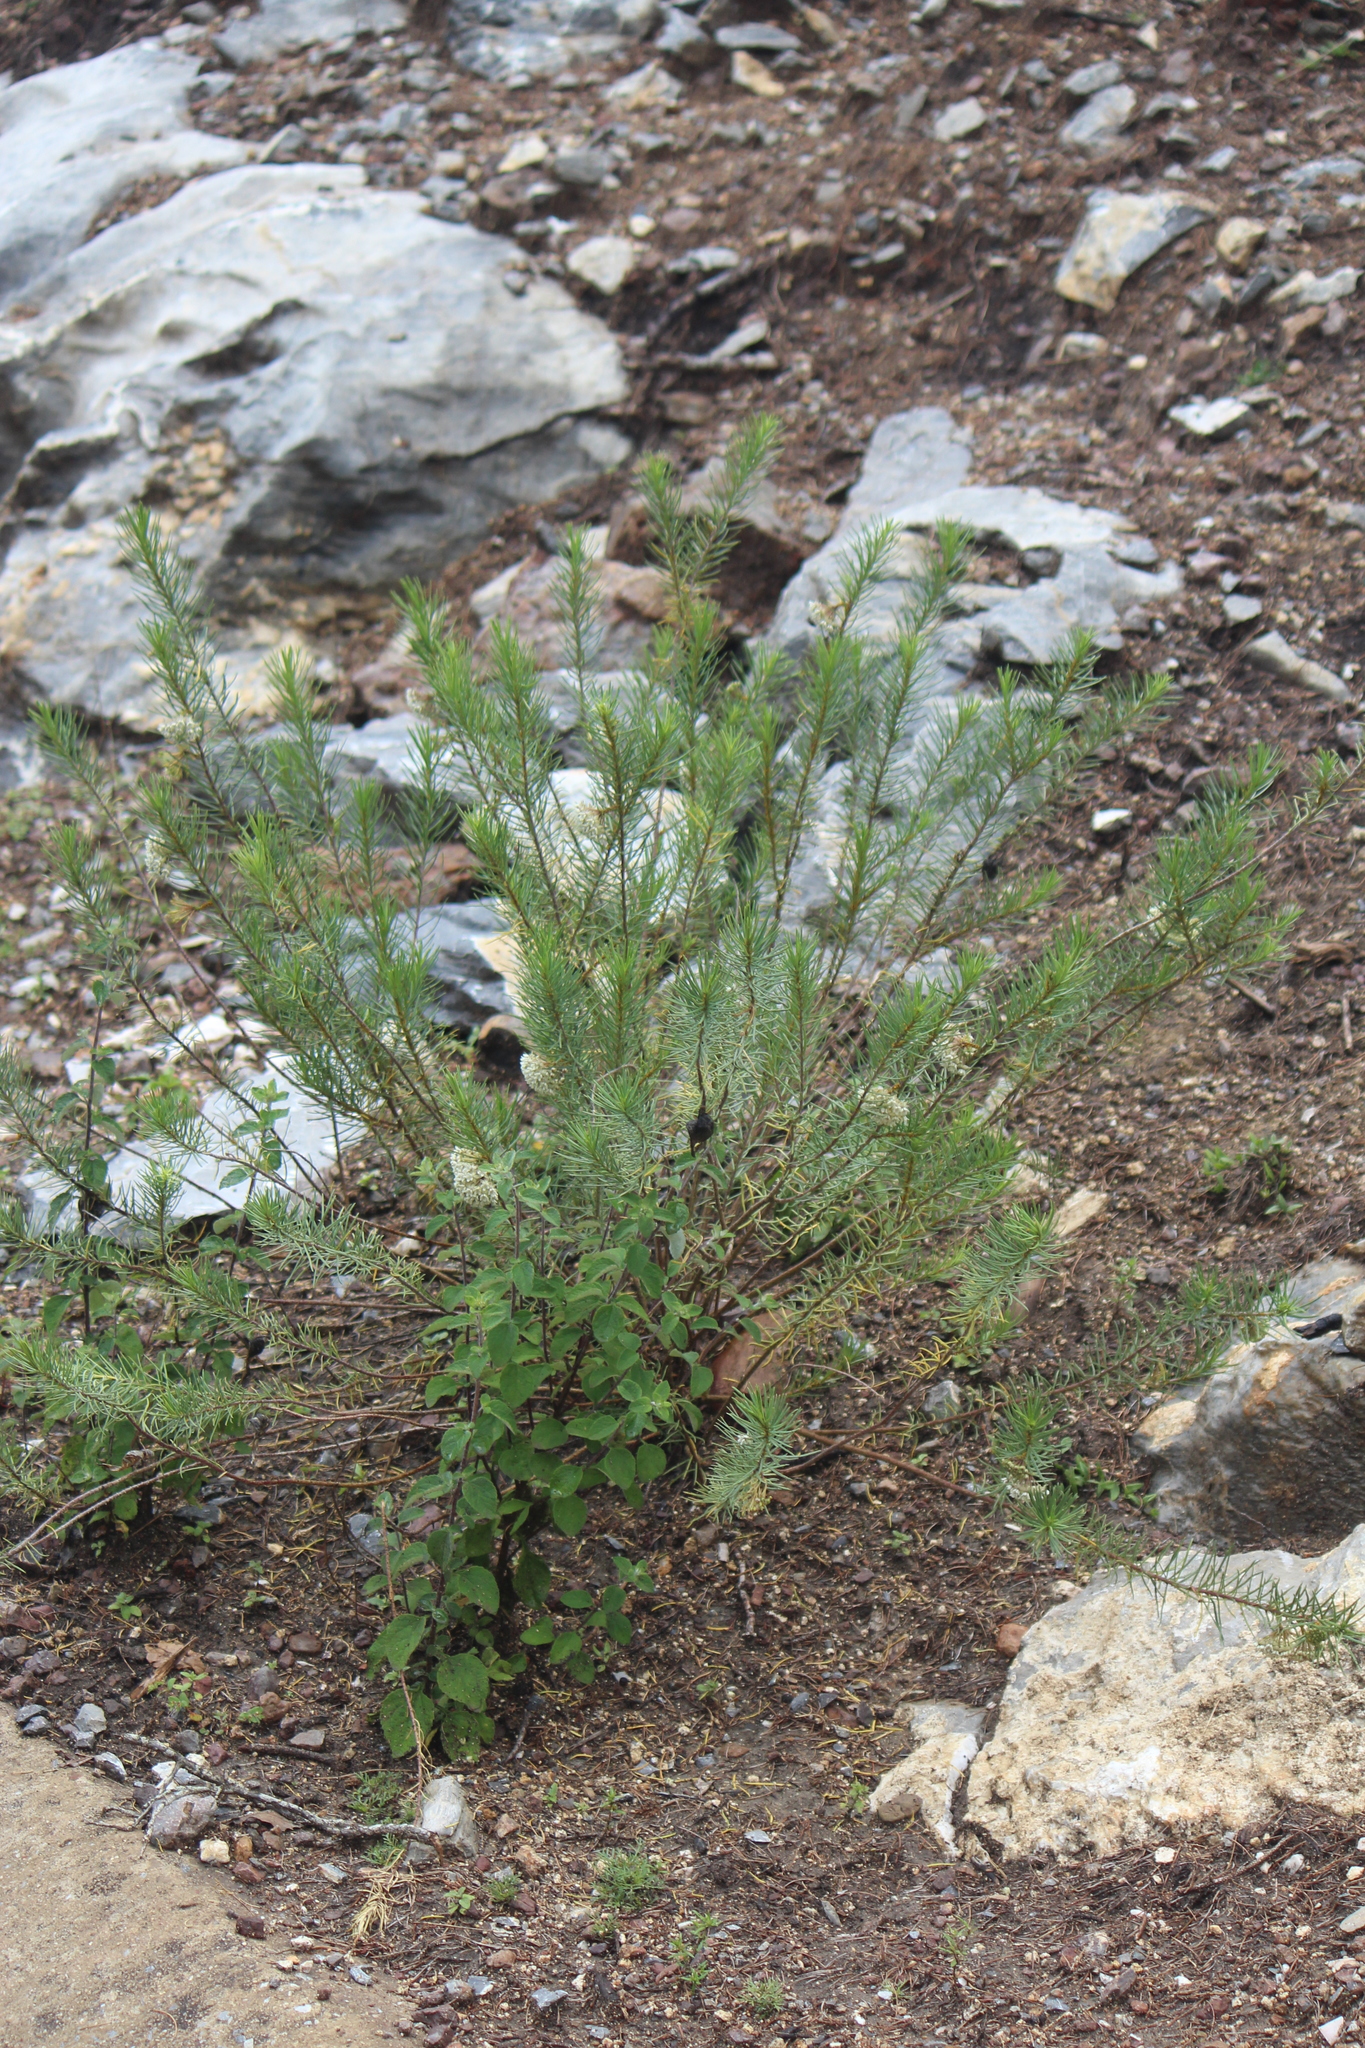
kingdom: Plantae
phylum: Tracheophyta
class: Magnoliopsida
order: Gentianales
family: Apocynaceae
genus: Asclepias
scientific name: Asclepias linaria
